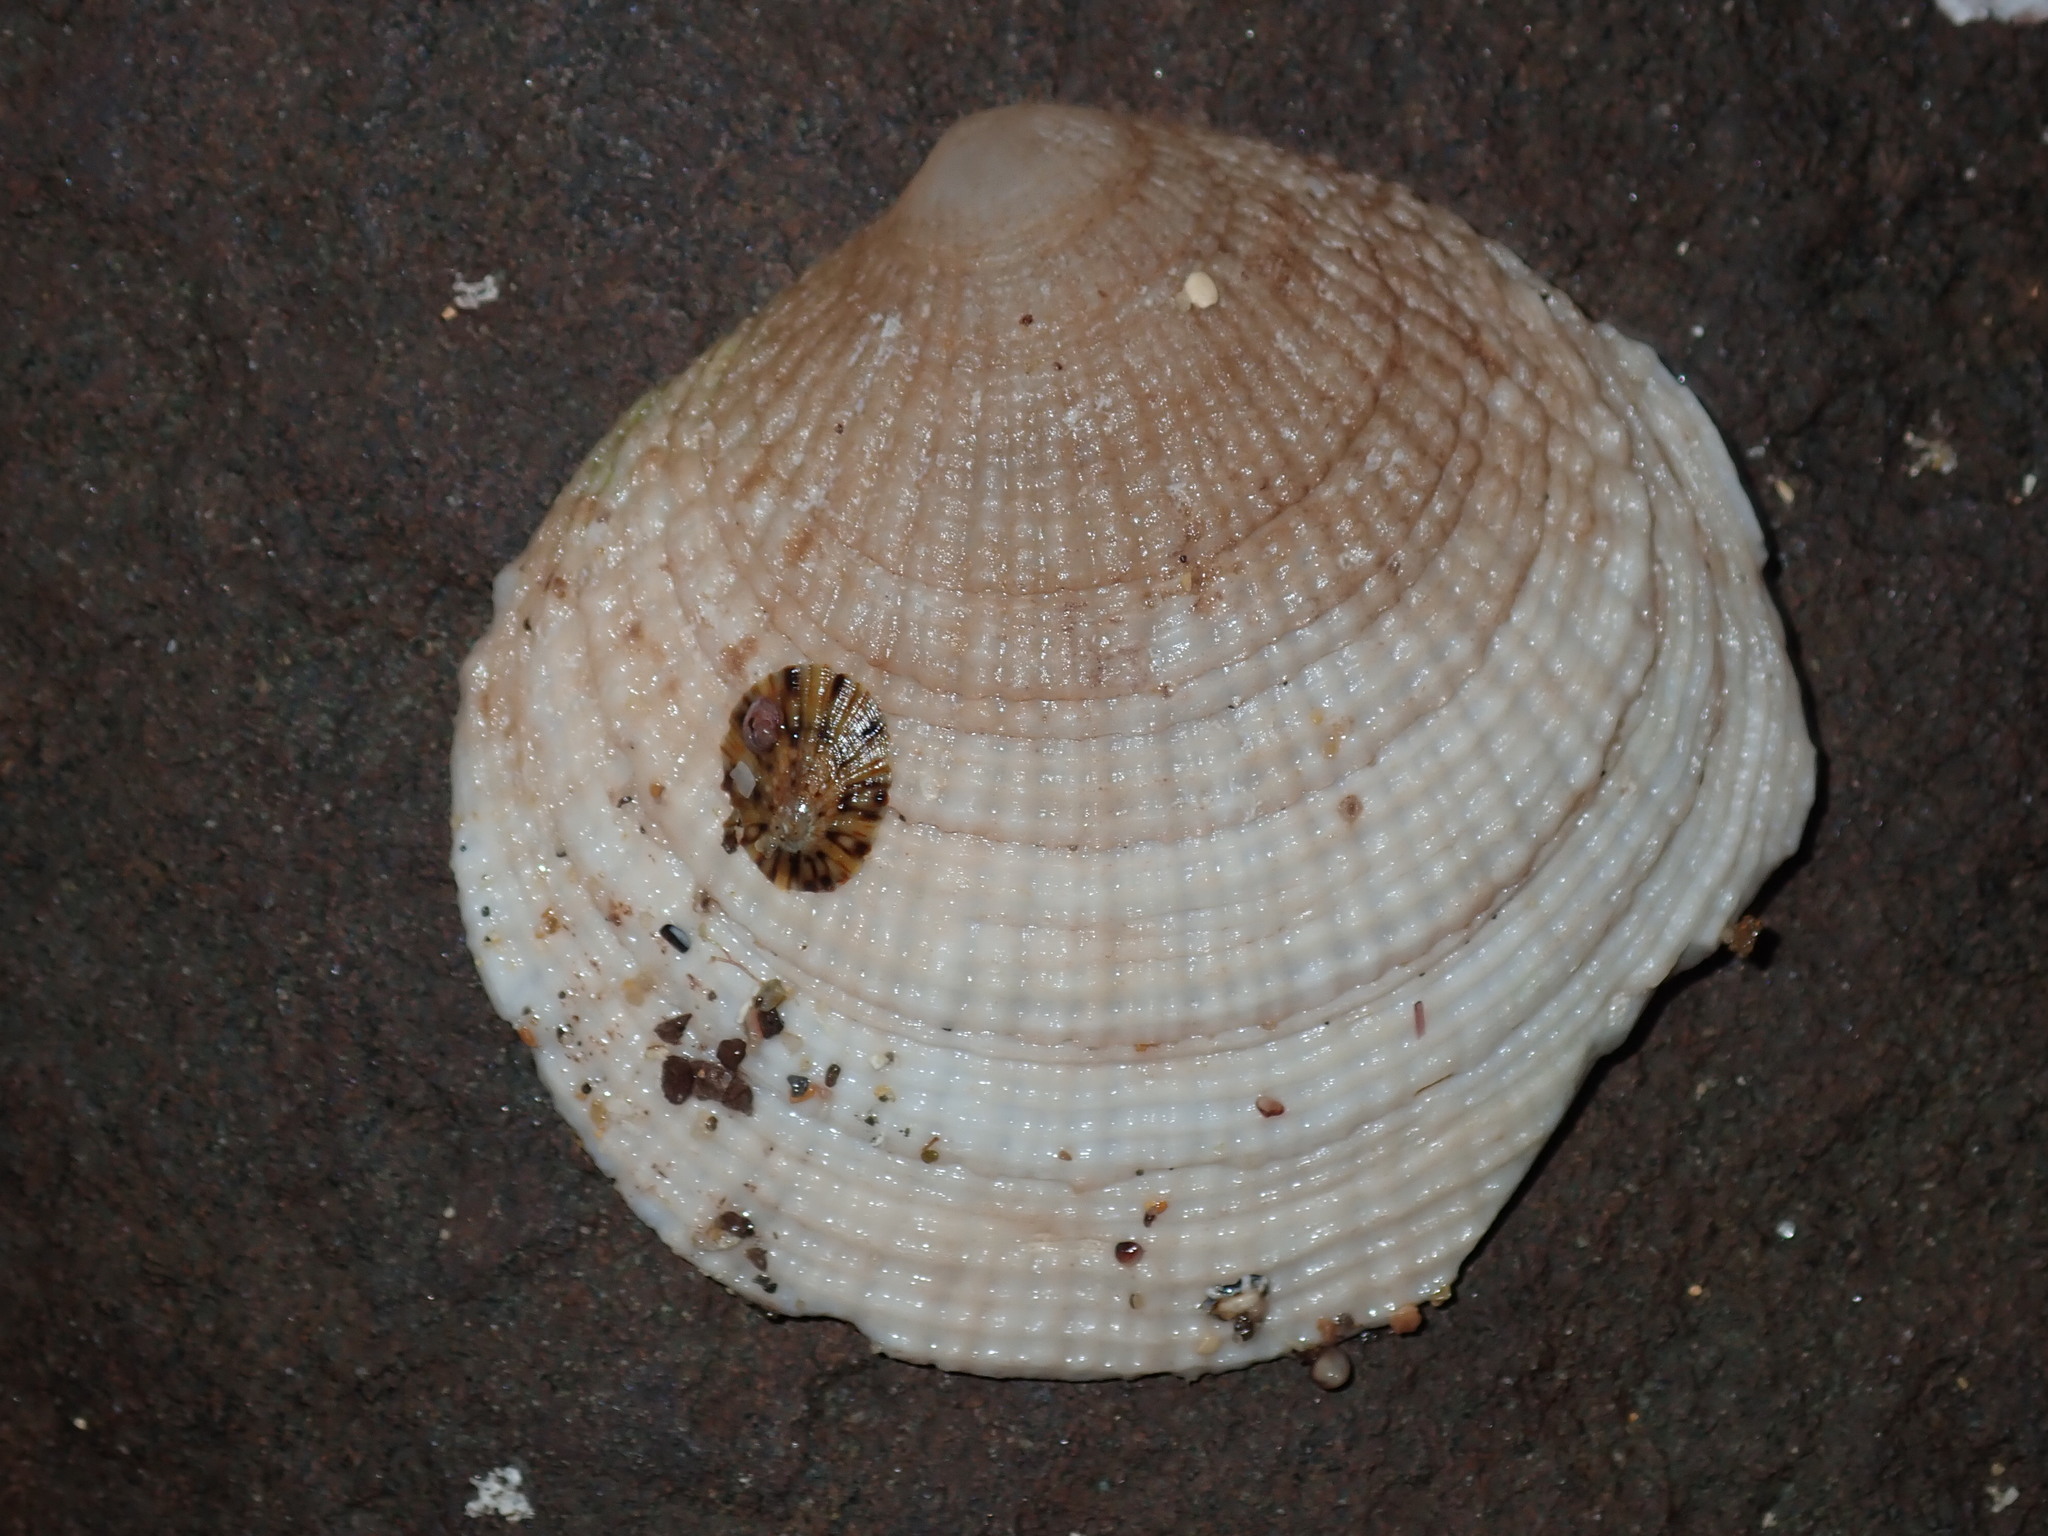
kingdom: Animalia
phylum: Mollusca
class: Bivalvia
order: Lucinida
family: Lucinidae
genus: Codakia
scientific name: Codakia rugifera
